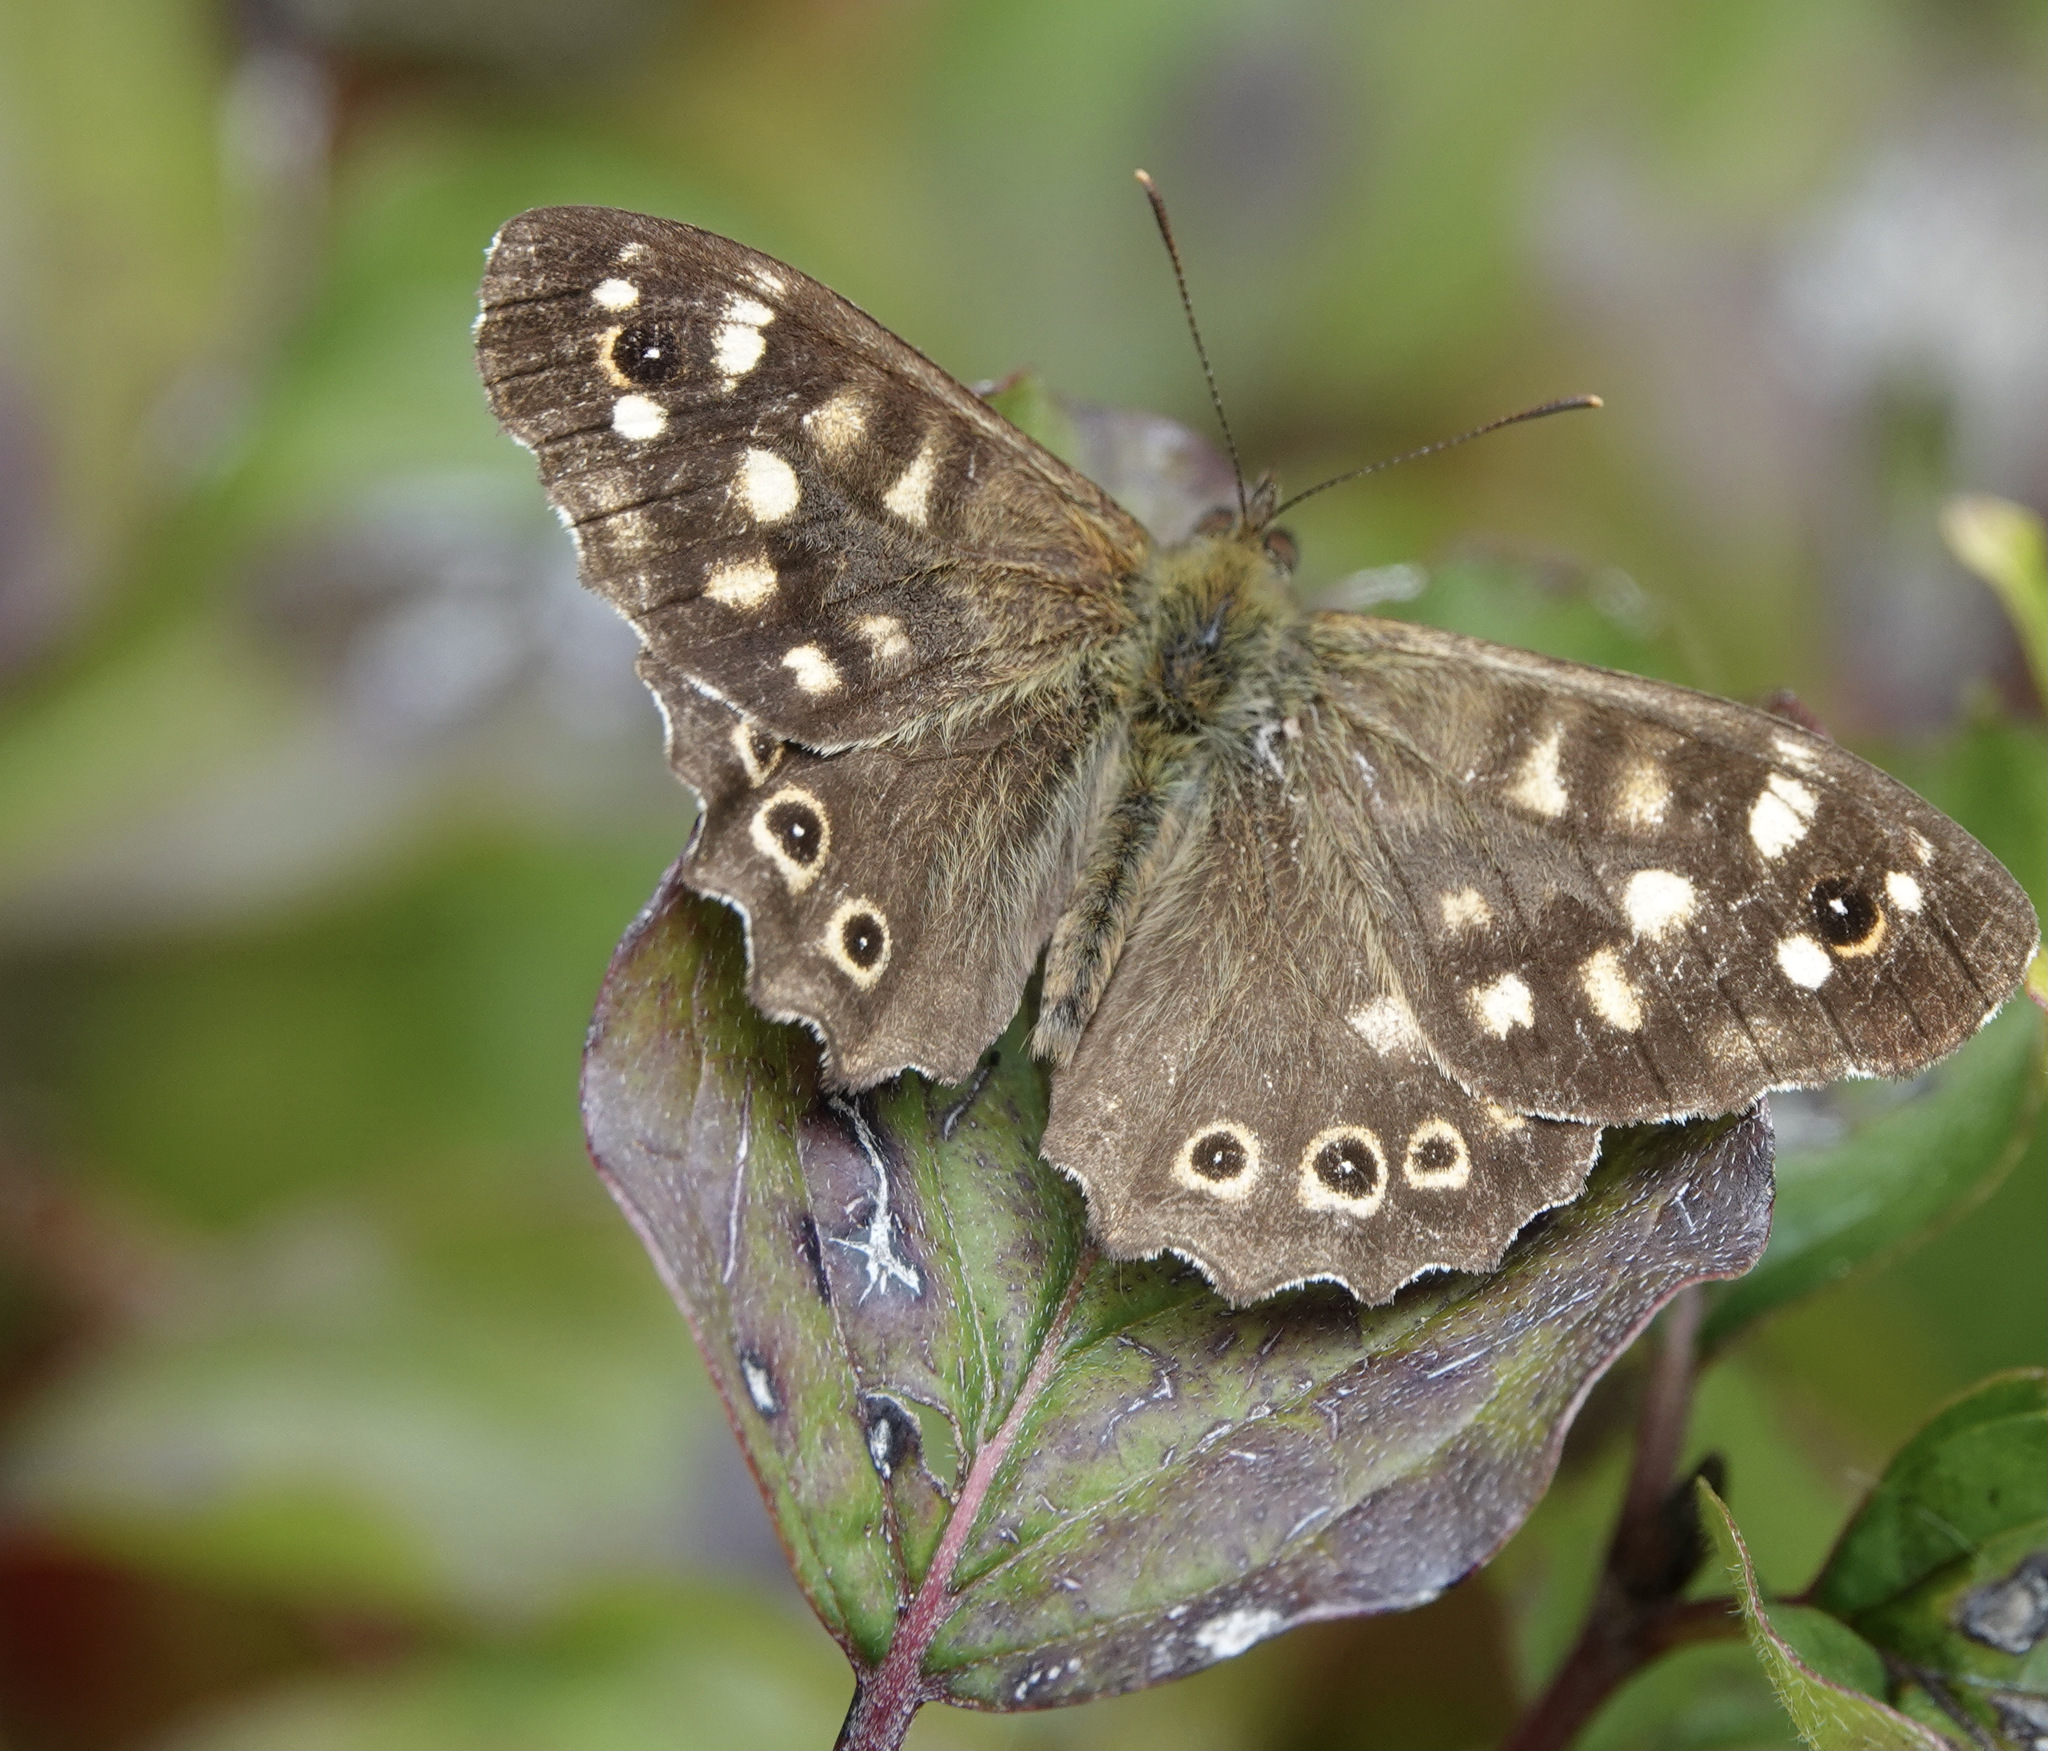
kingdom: Animalia
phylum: Arthropoda
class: Insecta
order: Lepidoptera
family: Nymphalidae
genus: Pararge
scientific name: Pararge aegeria
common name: Speckled wood
